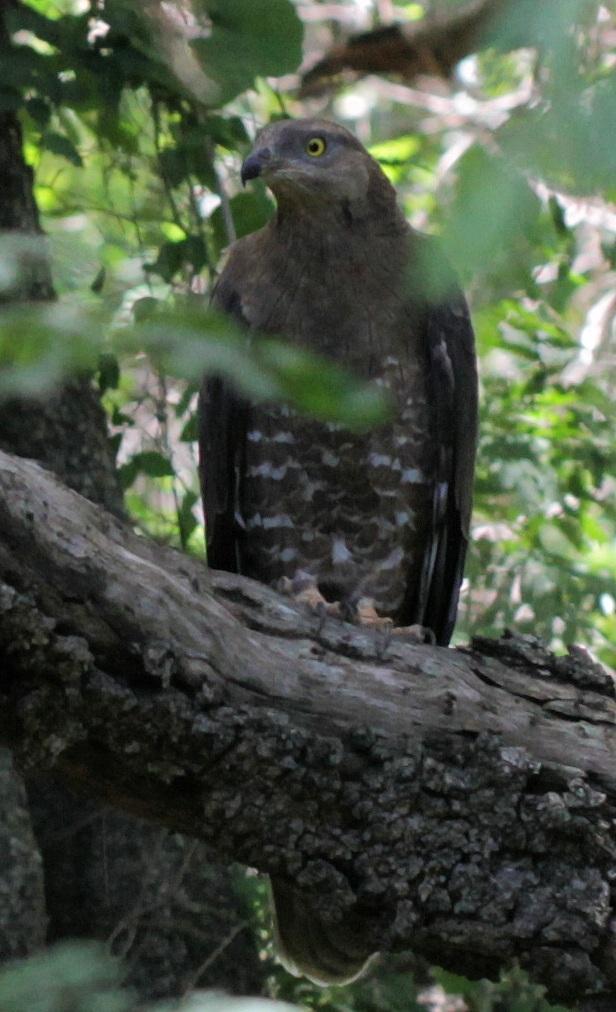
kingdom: Animalia
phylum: Chordata
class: Aves
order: Accipitriformes
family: Accipitridae
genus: Pernis
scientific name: Pernis apivorus
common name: European honey buzzard
